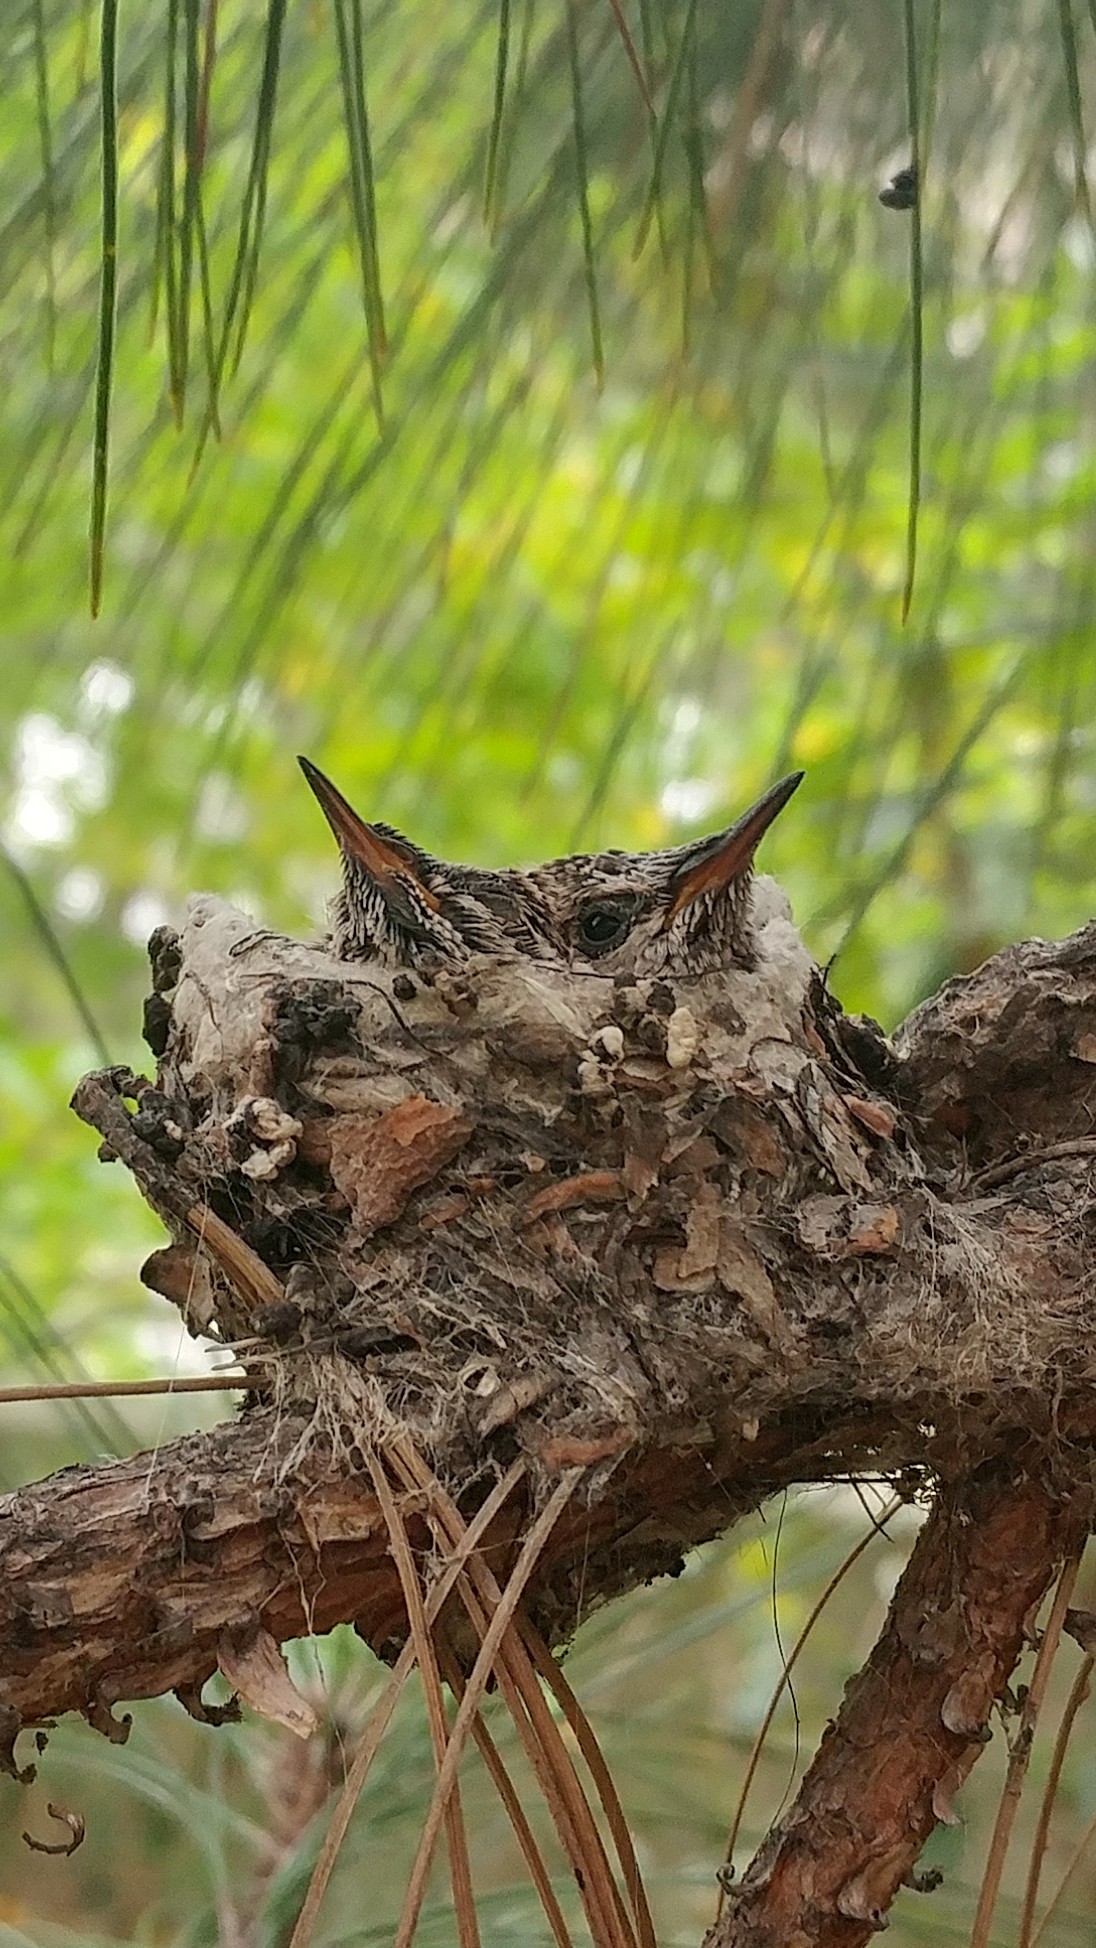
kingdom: Animalia
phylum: Chordata
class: Aves
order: Apodiformes
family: Trochilidae
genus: Calypte
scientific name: Calypte anna
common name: Anna's hummingbird
